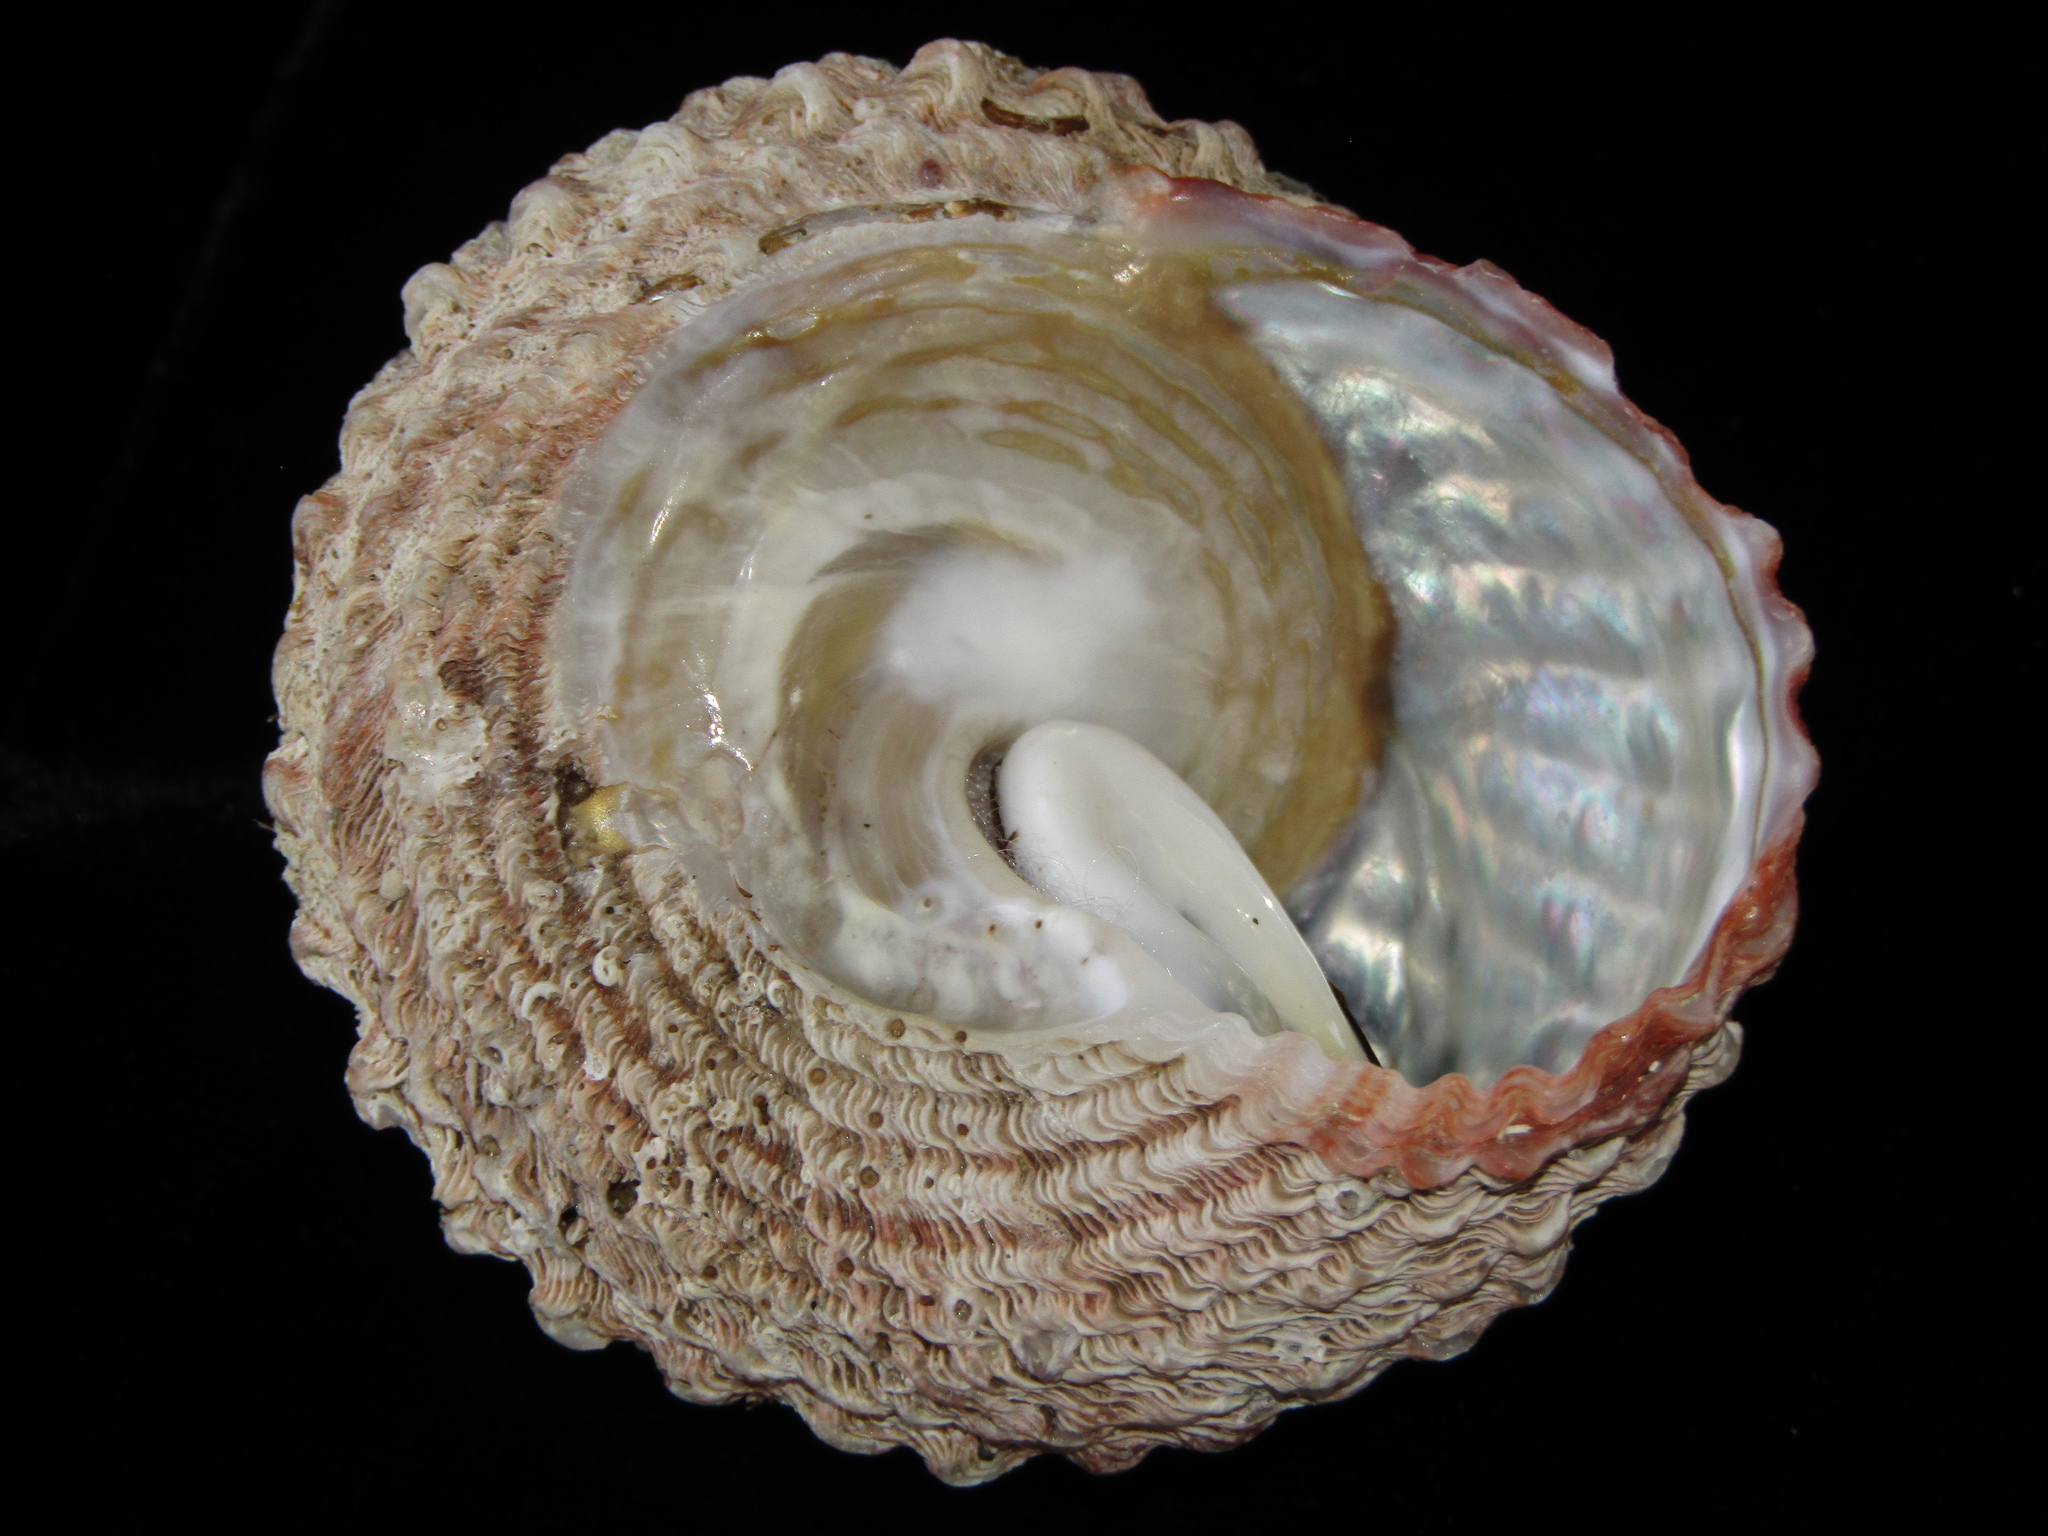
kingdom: Animalia
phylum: Mollusca
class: Gastropoda
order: Trochida
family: Turbinidae
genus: Cookia
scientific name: Cookia sulcata
